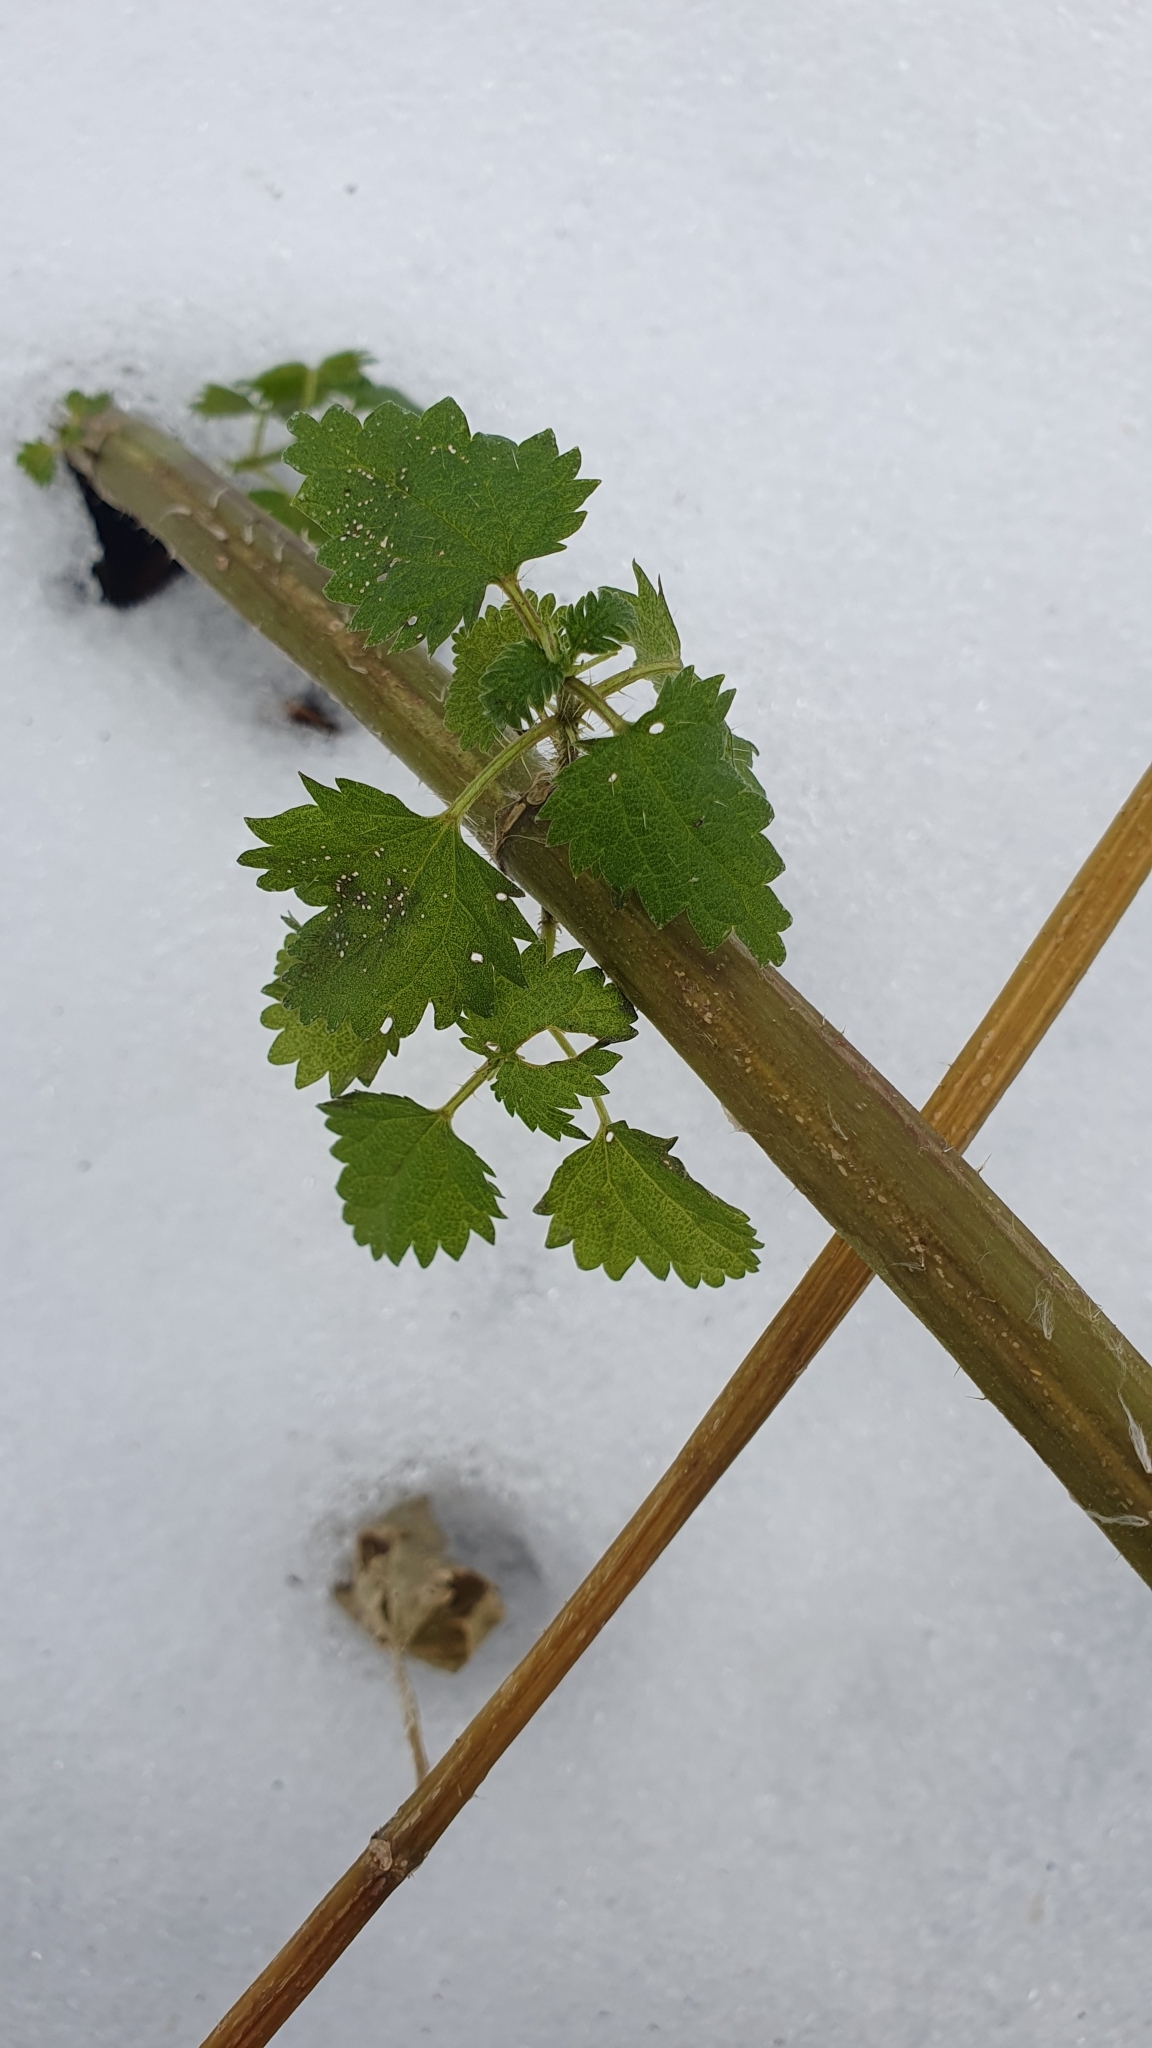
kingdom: Plantae
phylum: Tracheophyta
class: Magnoliopsida
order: Rosales
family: Urticaceae
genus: Urtica
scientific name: Urtica dioica
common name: Common nettle
